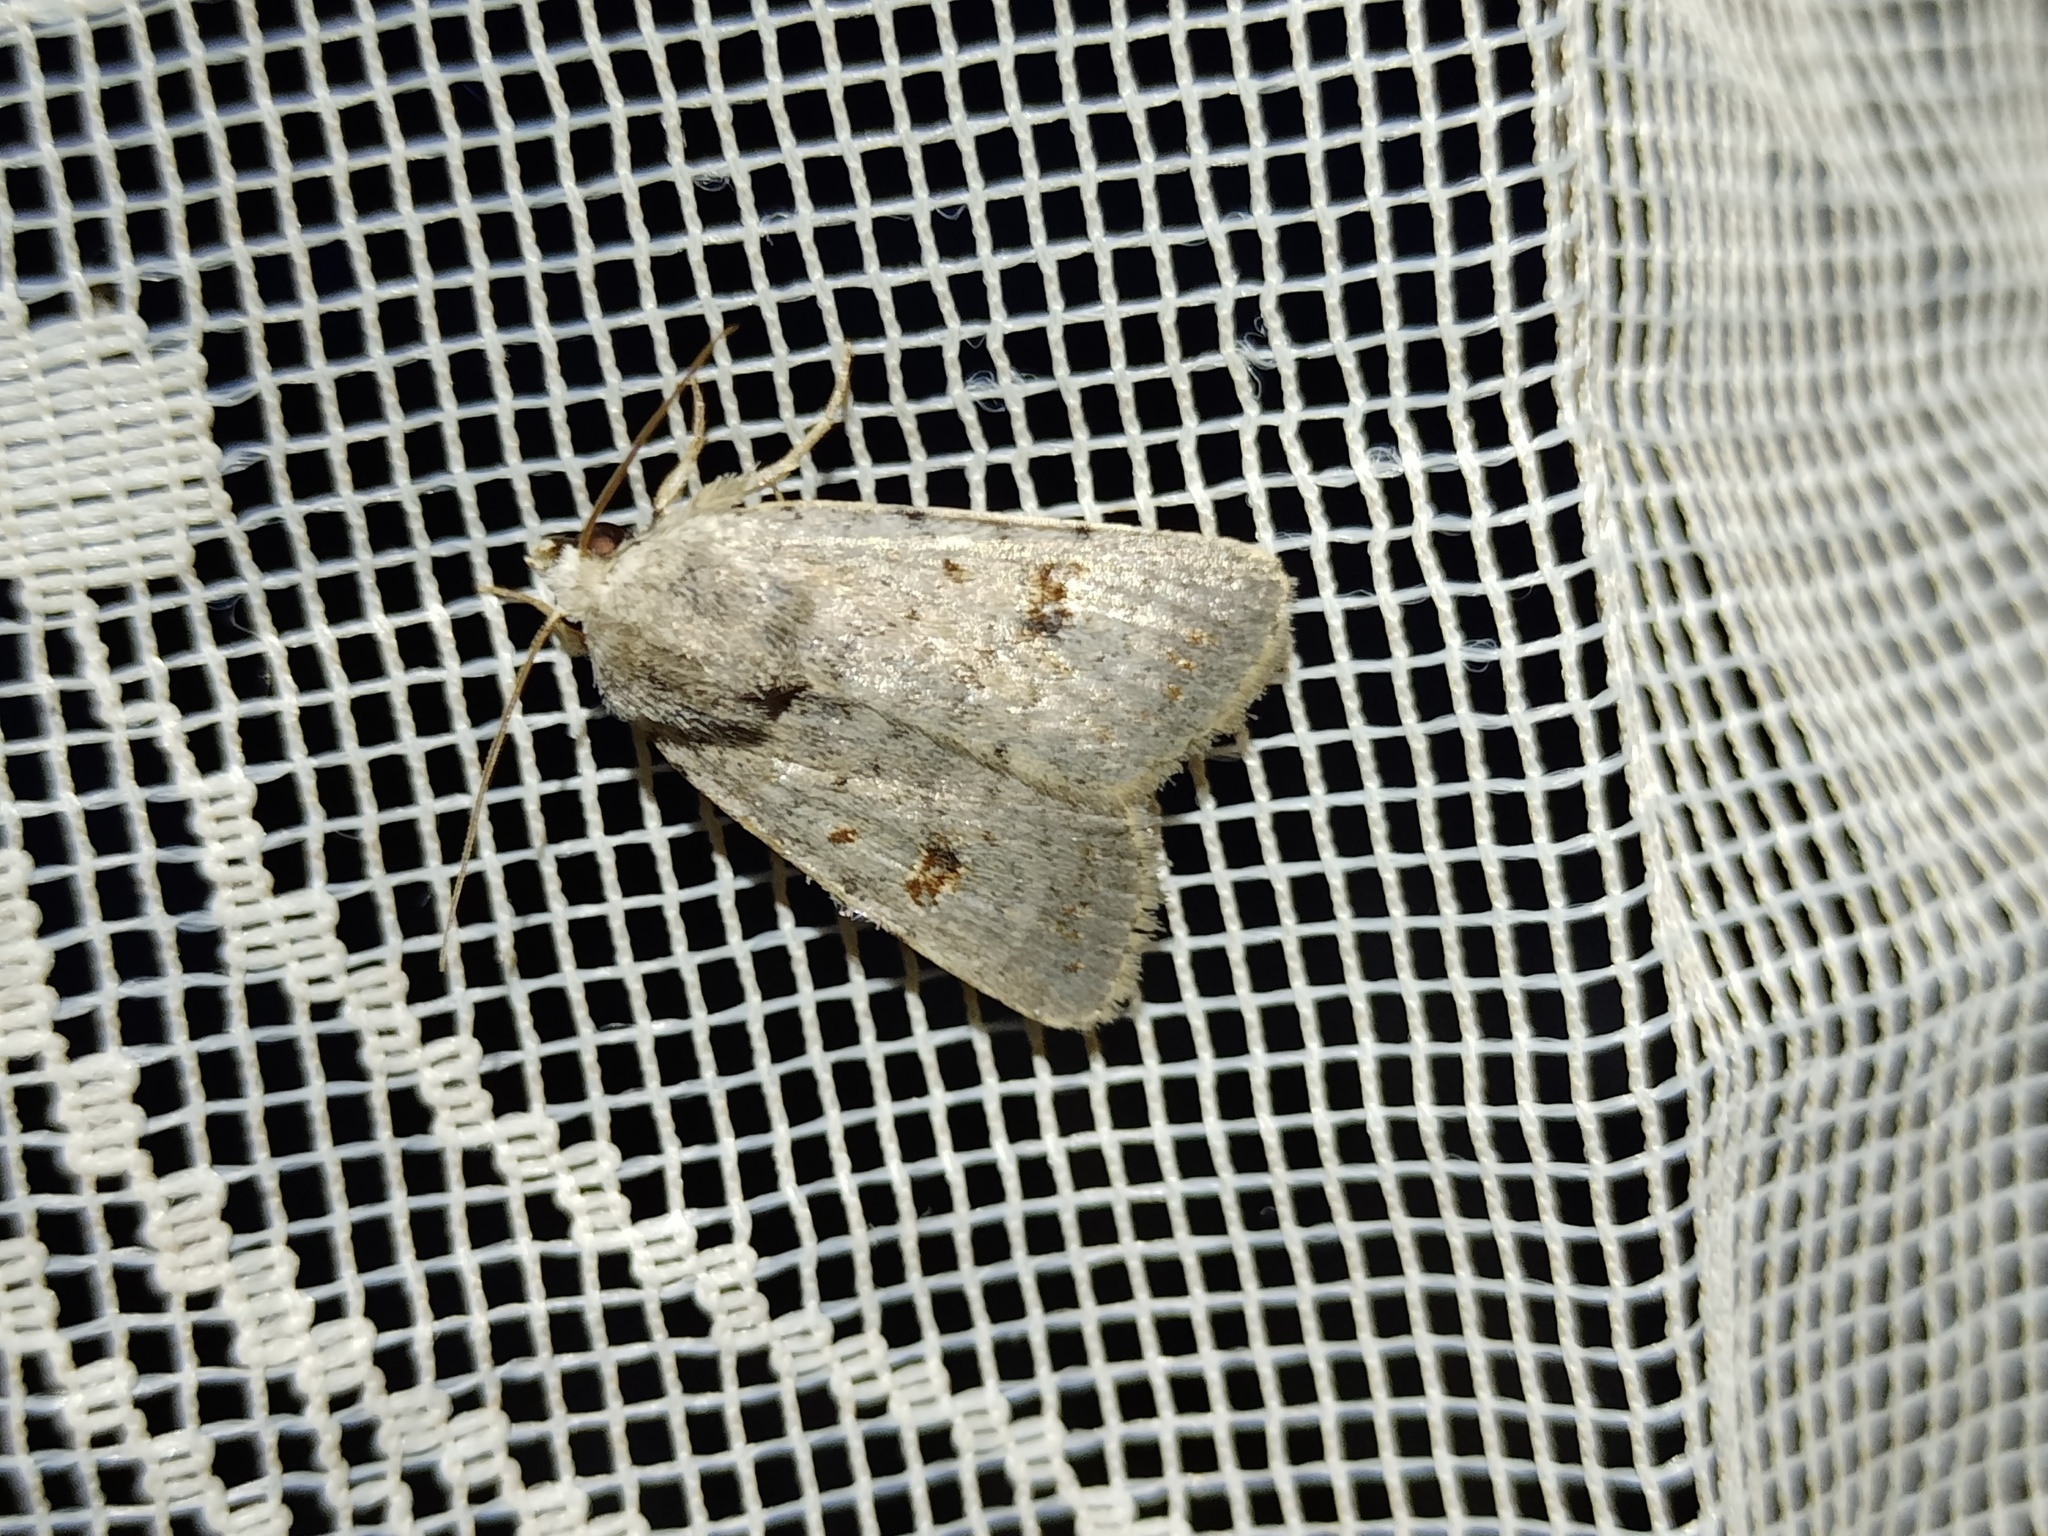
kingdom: Animalia
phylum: Arthropoda
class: Insecta
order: Lepidoptera
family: Noctuidae
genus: Caradrina
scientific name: Caradrina kadenii
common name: Clancy's rustic
